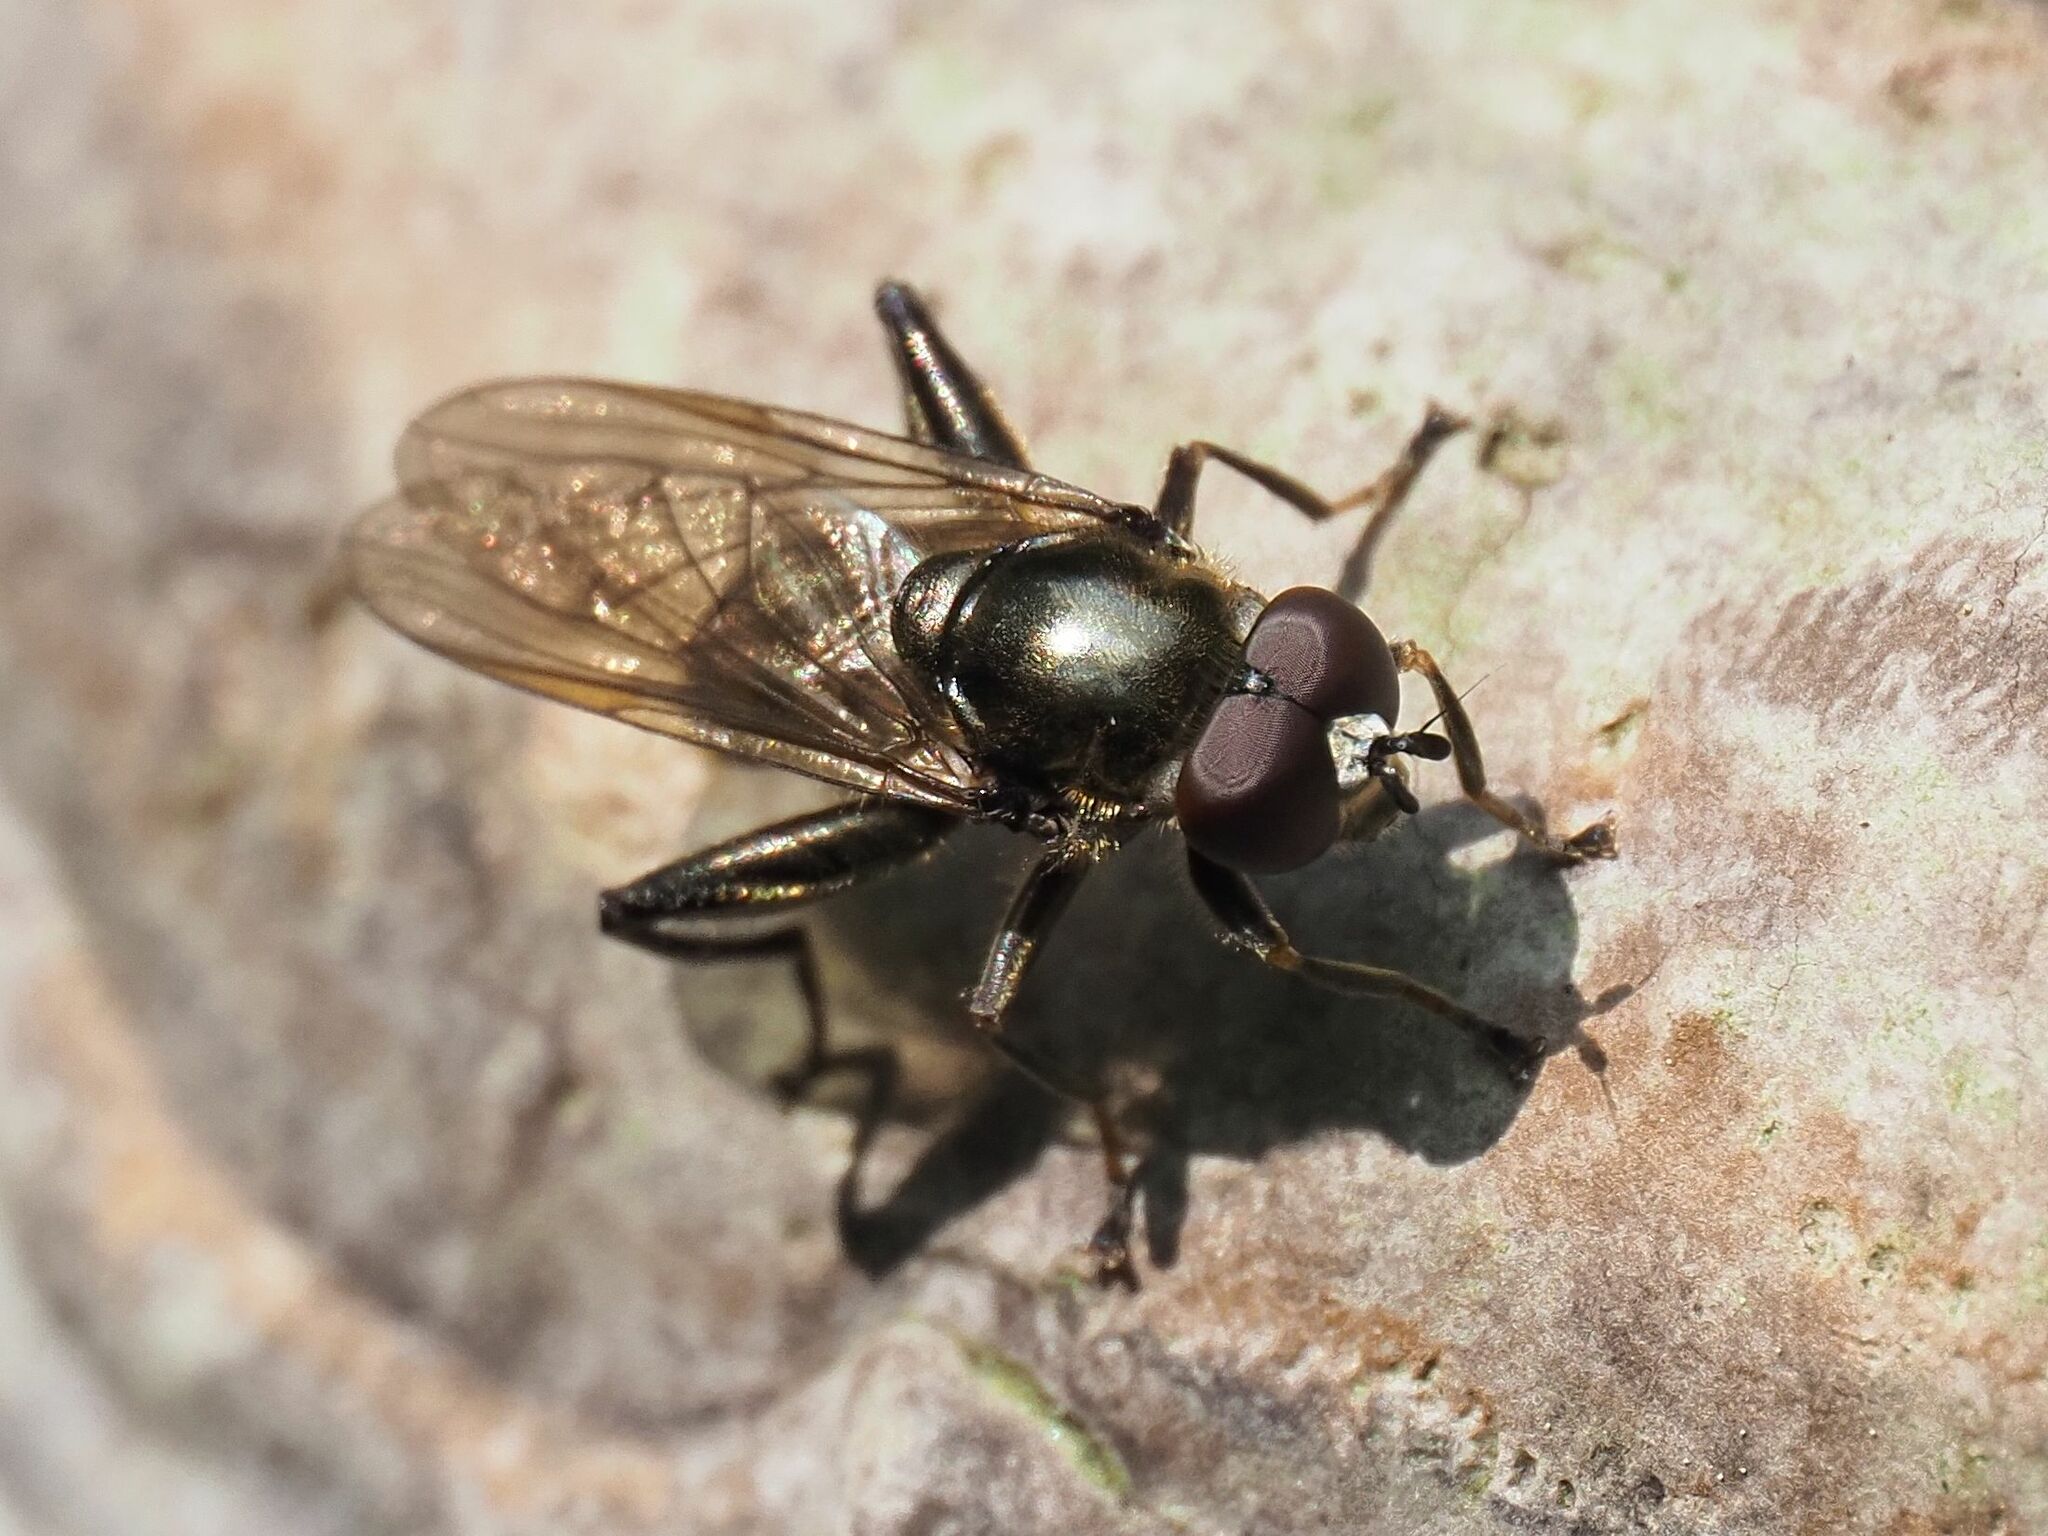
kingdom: Animalia
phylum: Arthropoda
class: Insecta
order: Diptera
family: Syrphidae
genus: Chalcosyrphus
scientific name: Chalcosyrphus nemorum
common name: Dusky-banded forest fly
